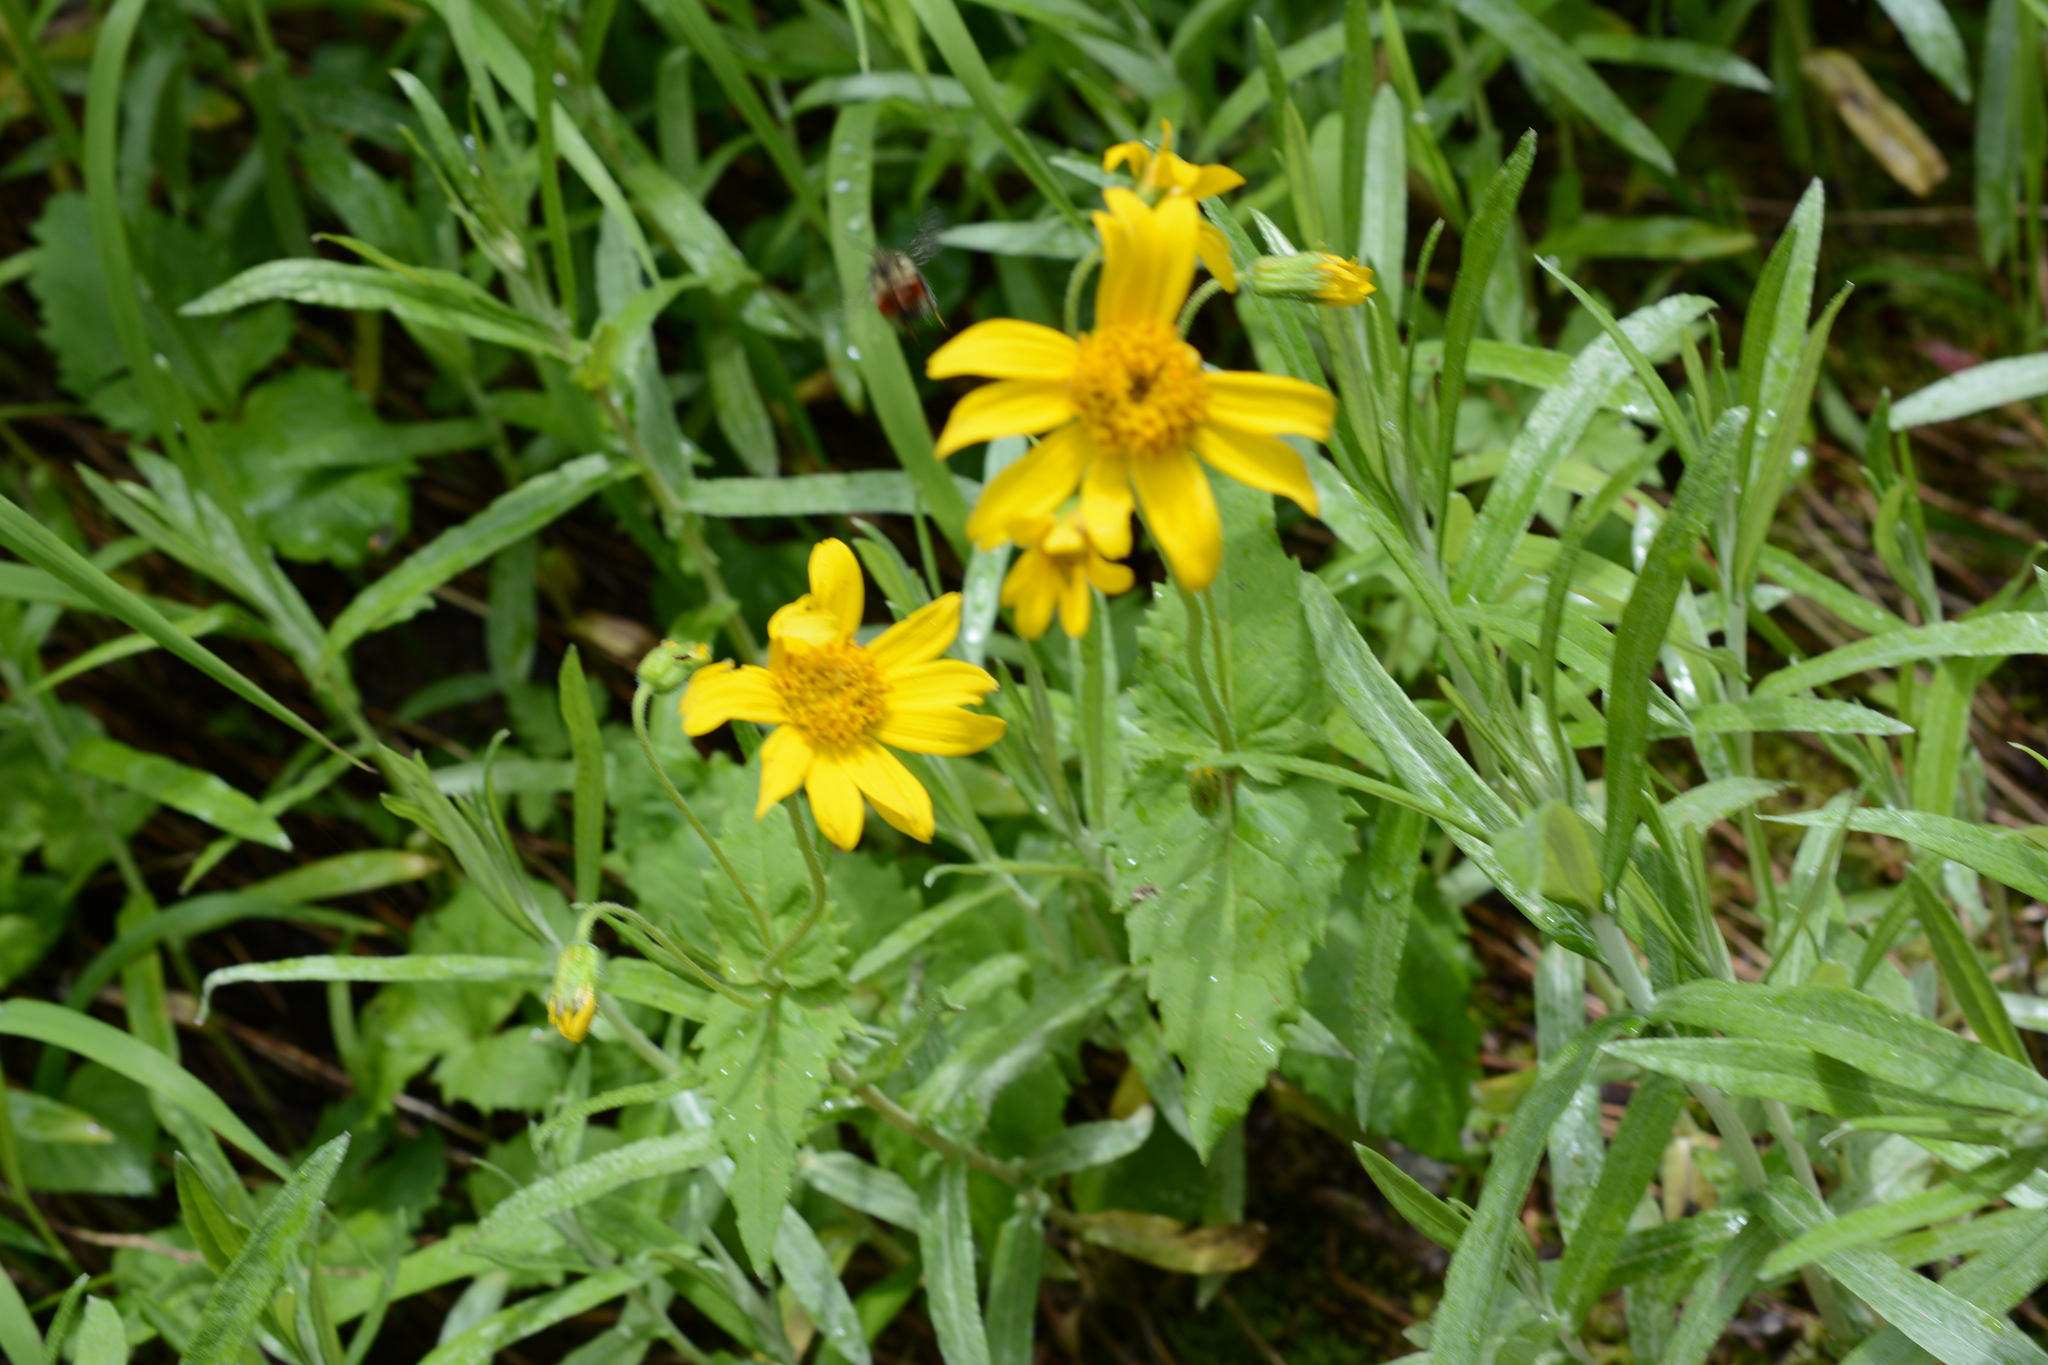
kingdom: Plantae
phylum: Tracheophyta
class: Magnoliopsida
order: Asterales
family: Asteraceae
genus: Arnica
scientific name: Arnica latifolia
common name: Arnica
